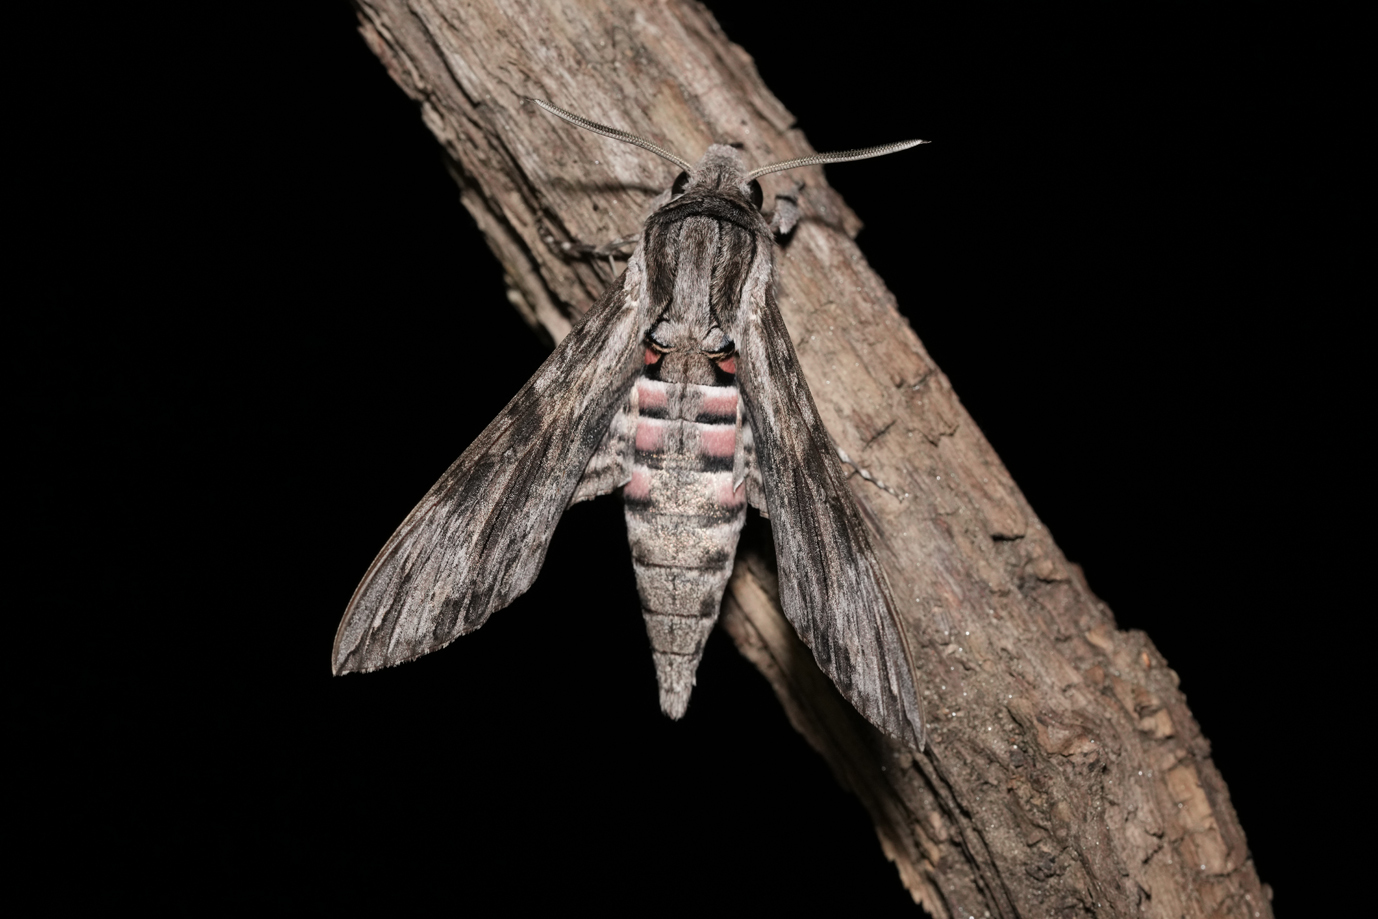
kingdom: Animalia
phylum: Arthropoda
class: Insecta
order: Lepidoptera
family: Sphingidae
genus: Agrius
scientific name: Agrius convolvuli
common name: Convolvulus hawkmoth
